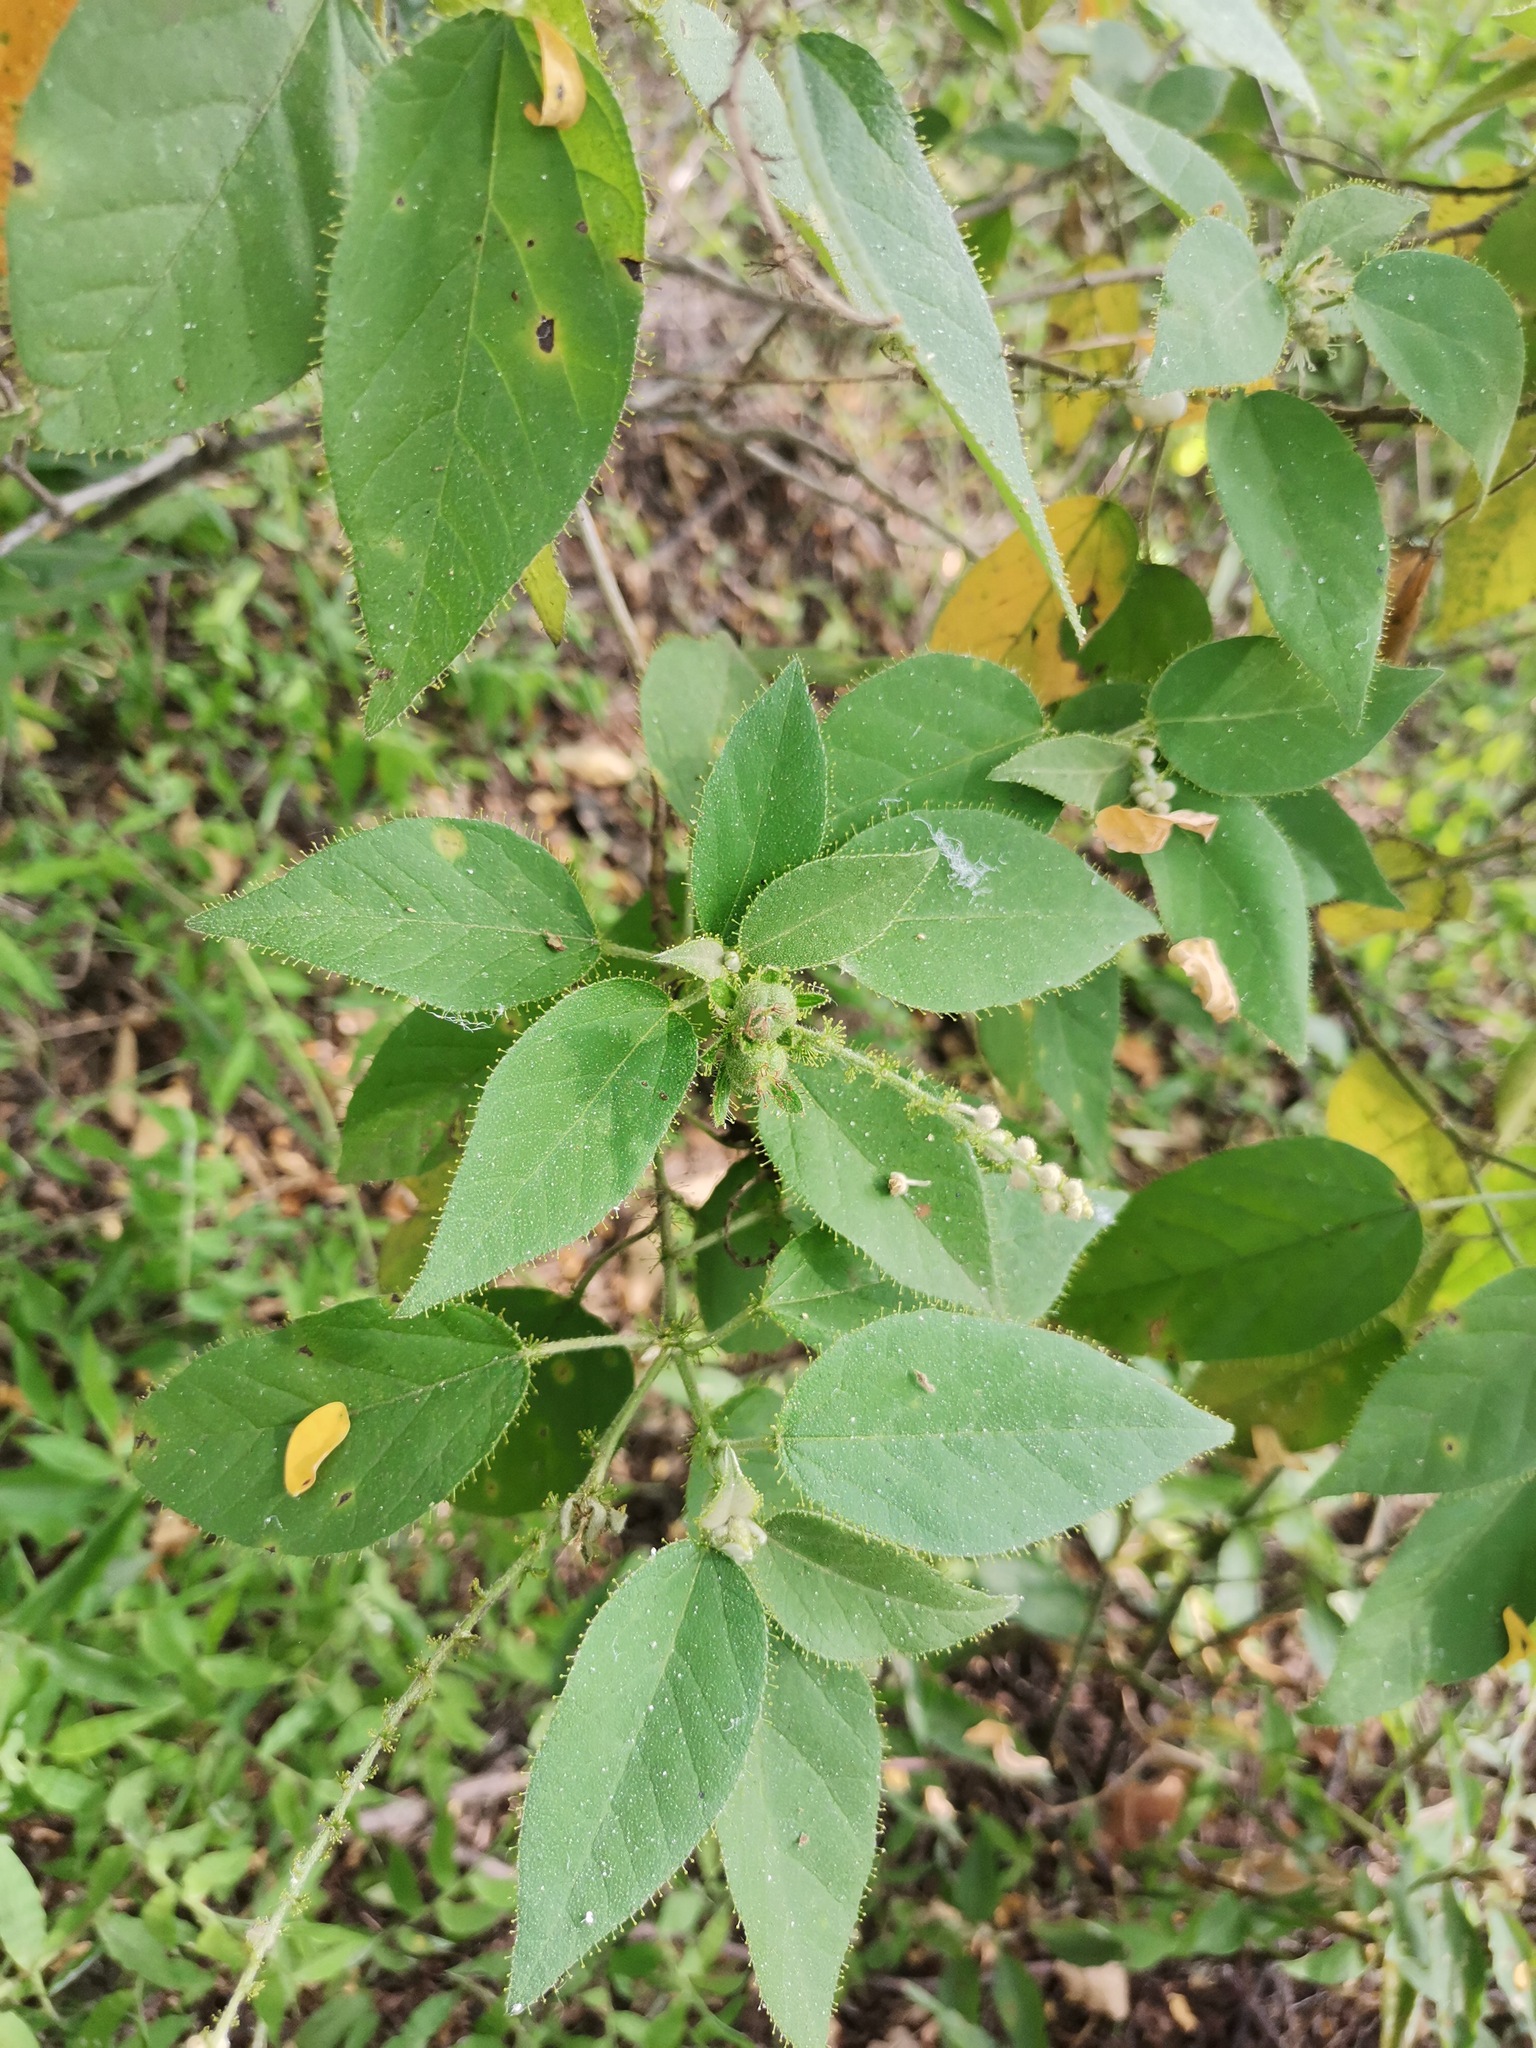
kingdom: Plantae
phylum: Tracheophyta
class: Magnoliopsida
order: Malpighiales
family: Euphorbiaceae
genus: Croton
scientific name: Croton ciliatoglandulifer
